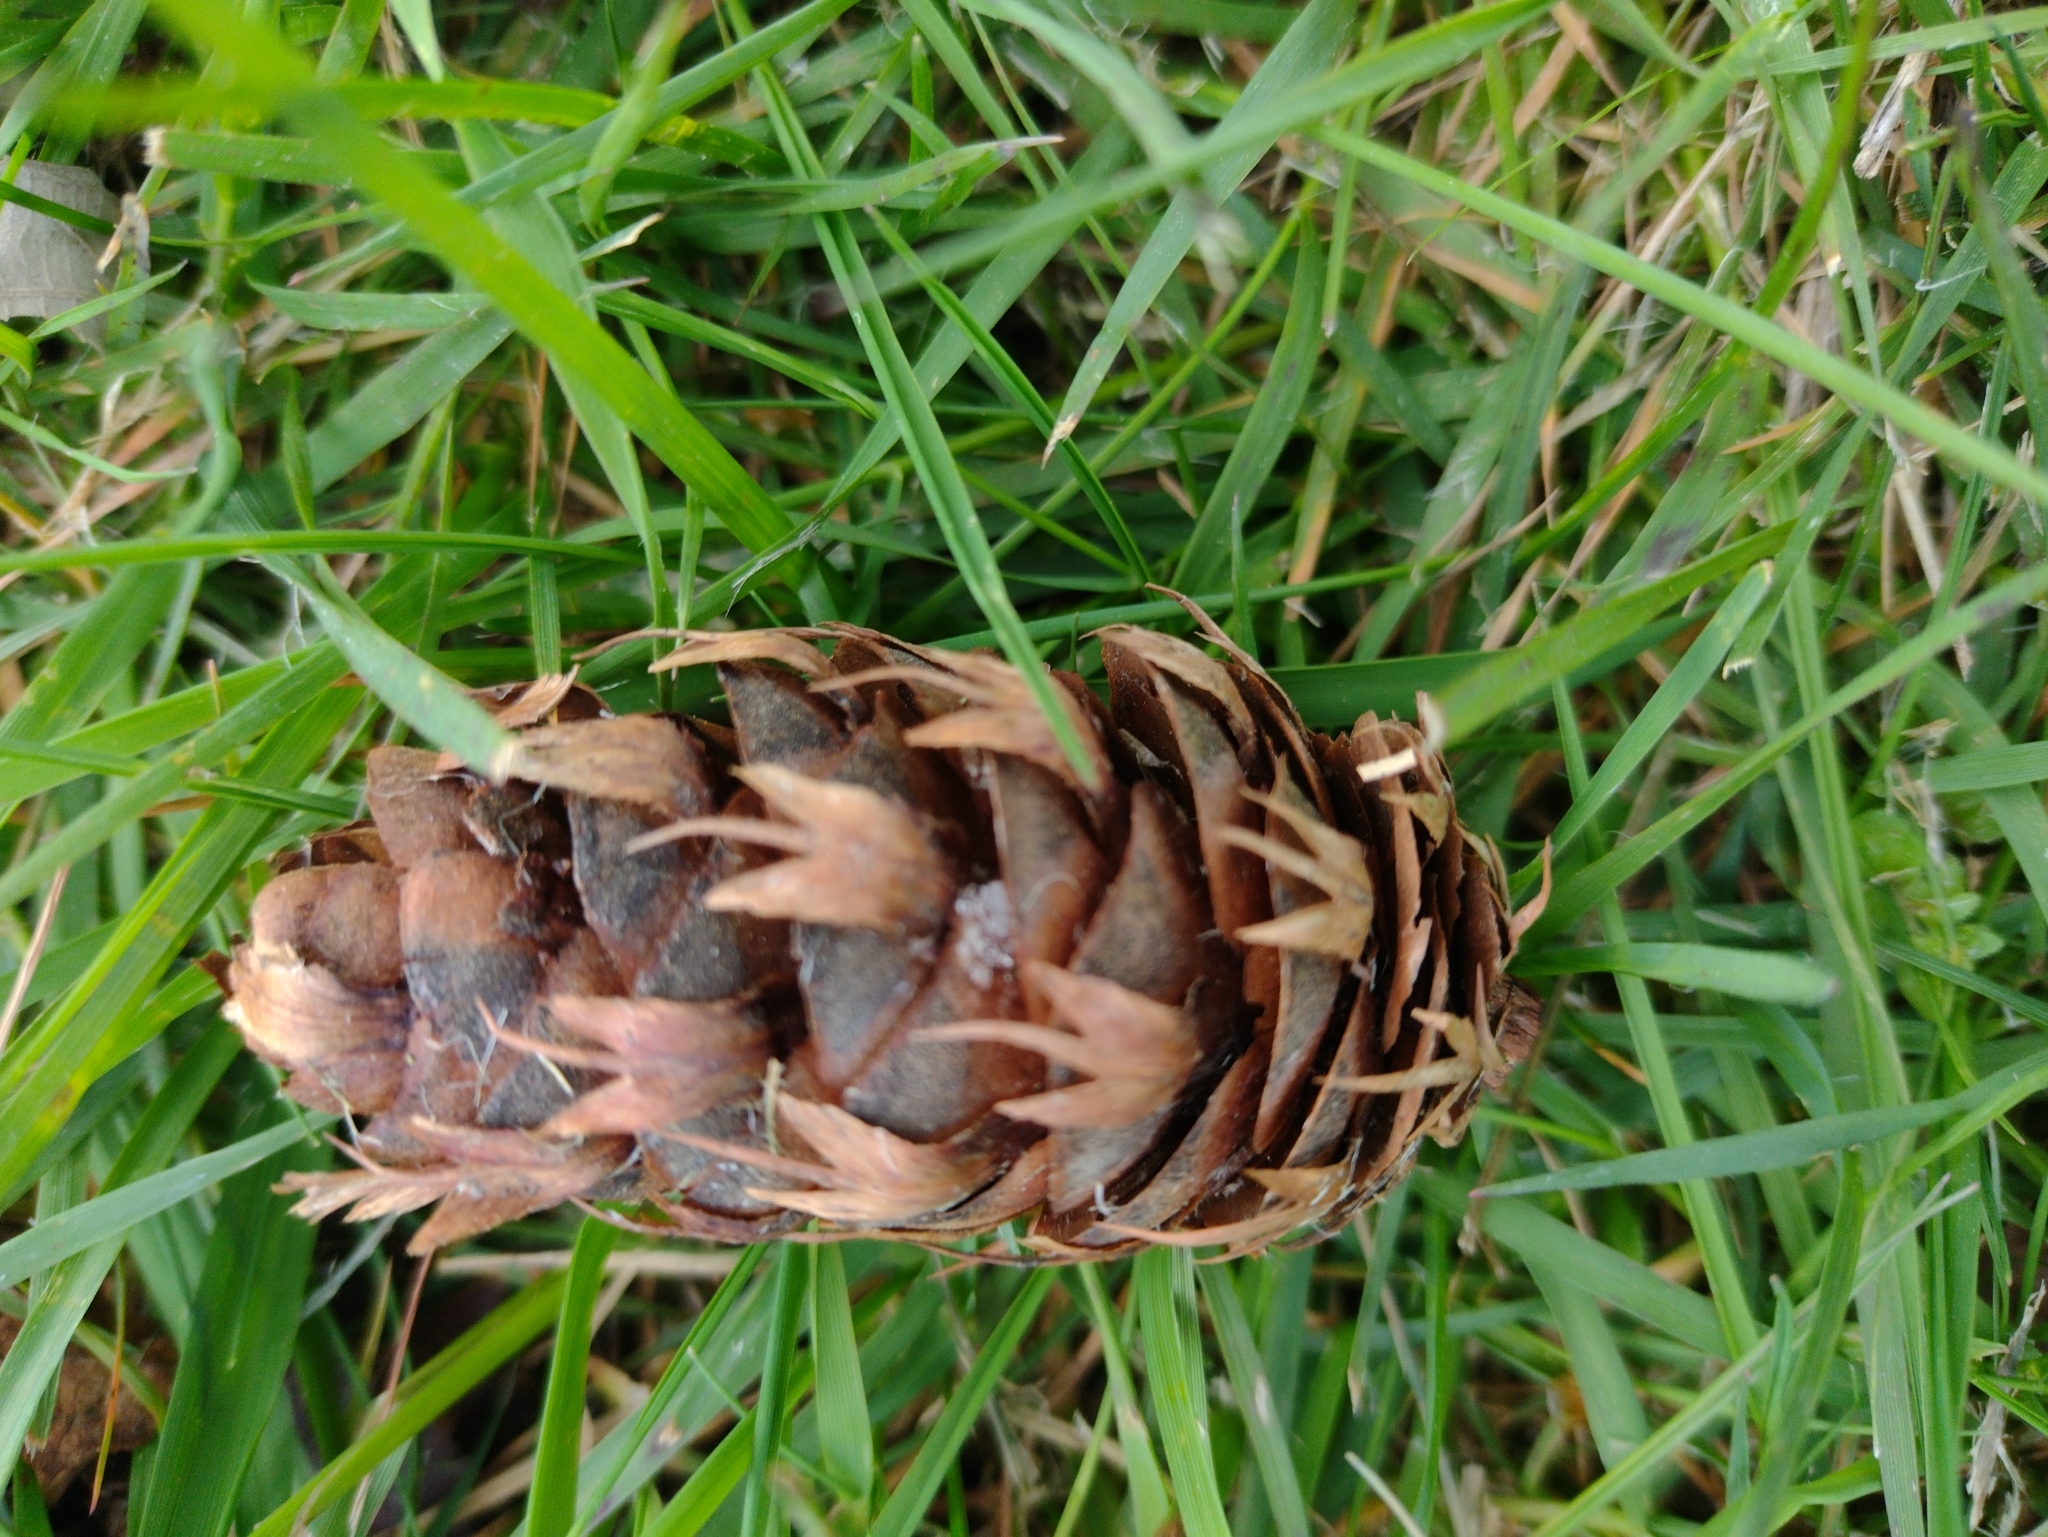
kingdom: Plantae
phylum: Tracheophyta
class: Pinopsida
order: Pinales
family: Pinaceae
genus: Pseudotsuga
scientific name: Pseudotsuga menziesii
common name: Douglas fir
